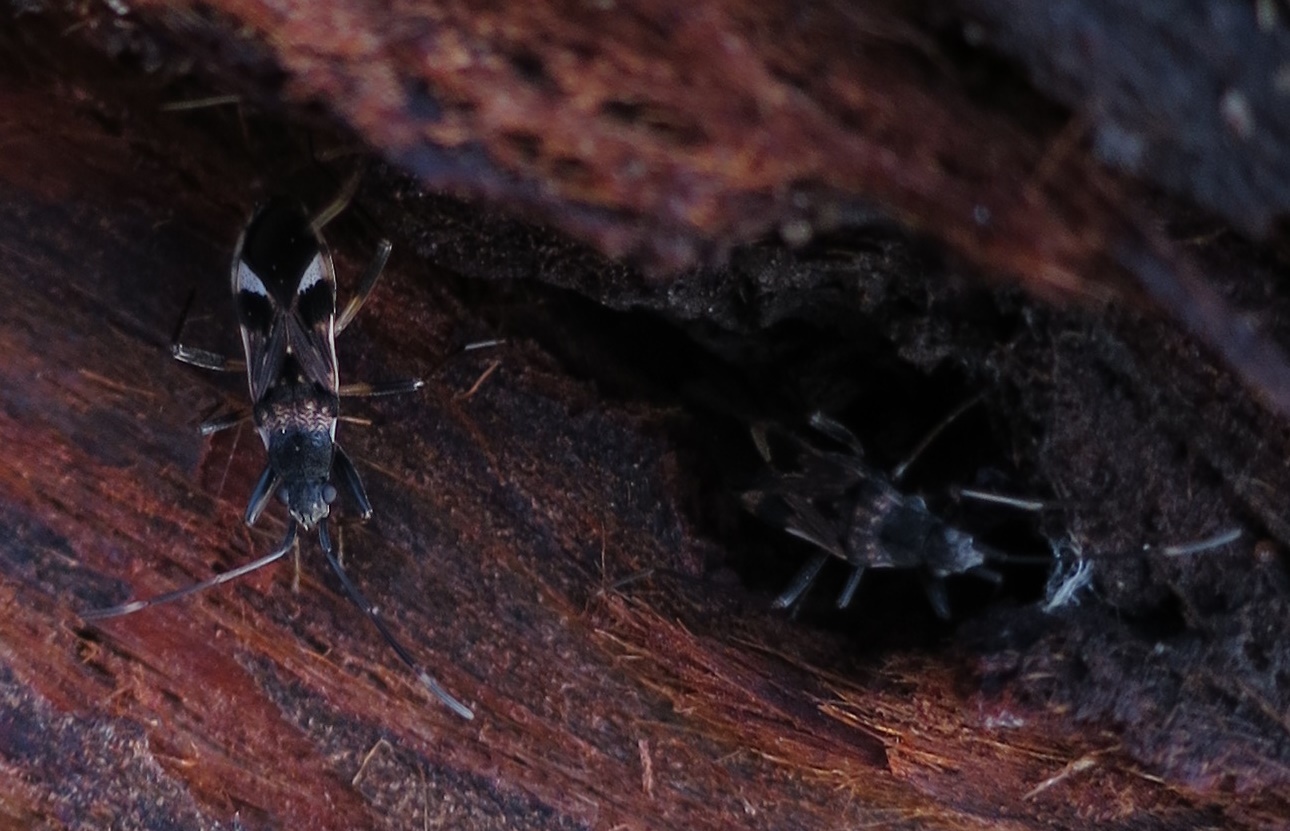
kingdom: Animalia
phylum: Arthropoda
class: Insecta
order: Hemiptera
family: Rhyparochromidae
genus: Dieuches
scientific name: Dieuches notatus
